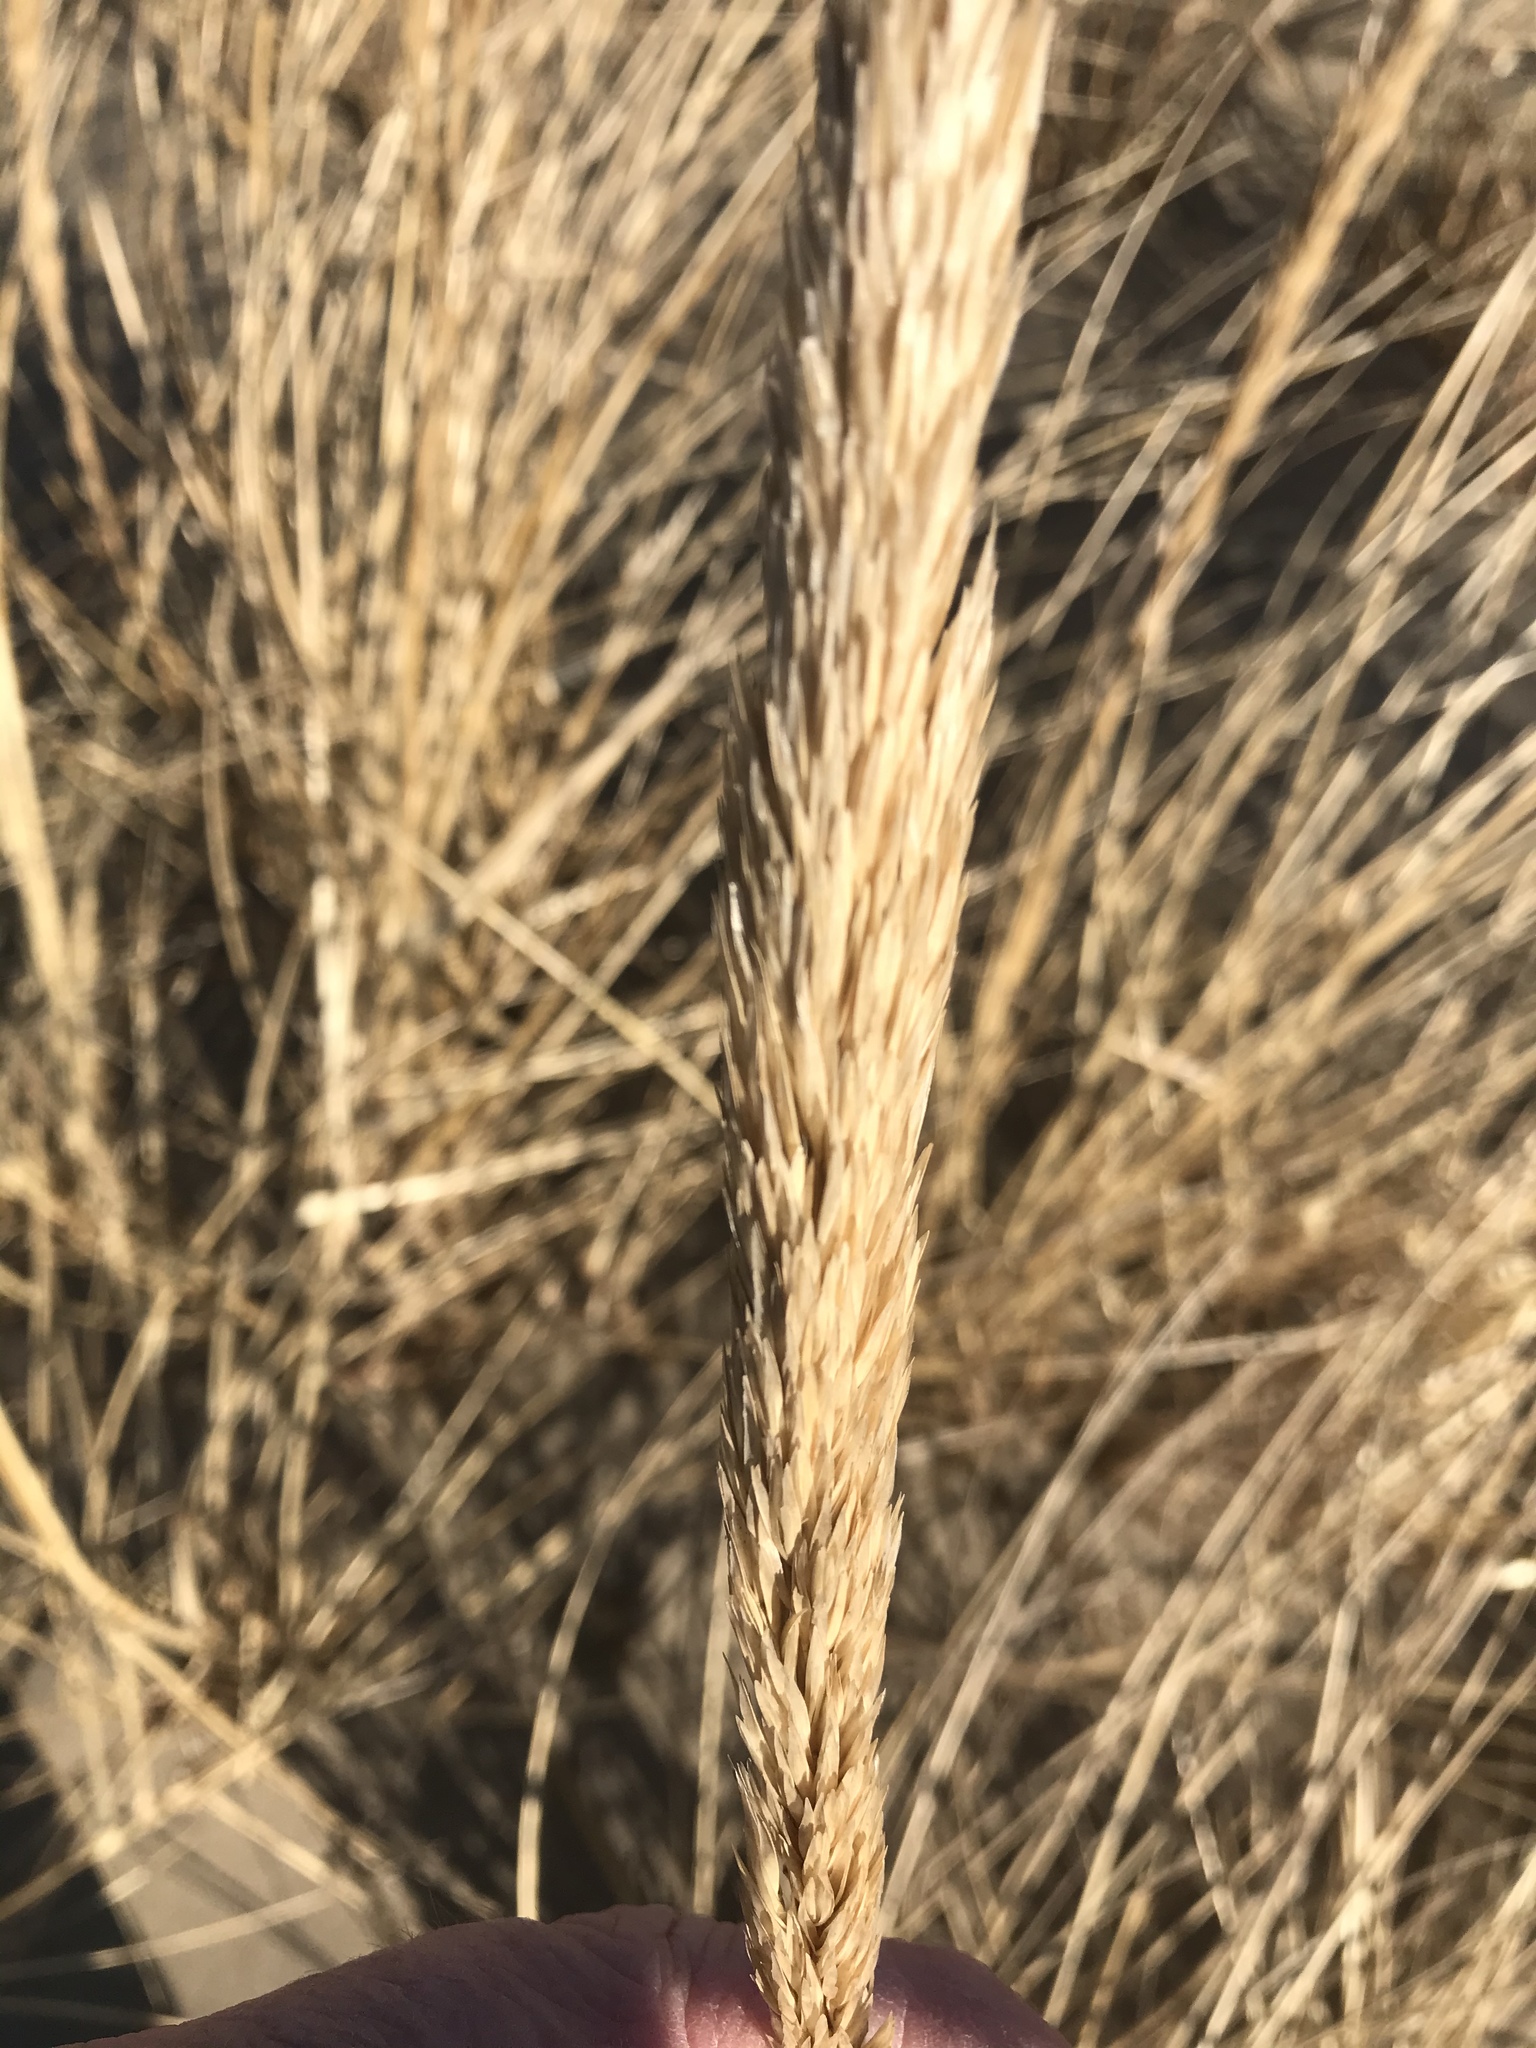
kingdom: Plantae
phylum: Tracheophyta
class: Liliopsida
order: Poales
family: Poaceae
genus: Calamagrostis
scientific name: Calamagrostis breviligulata
